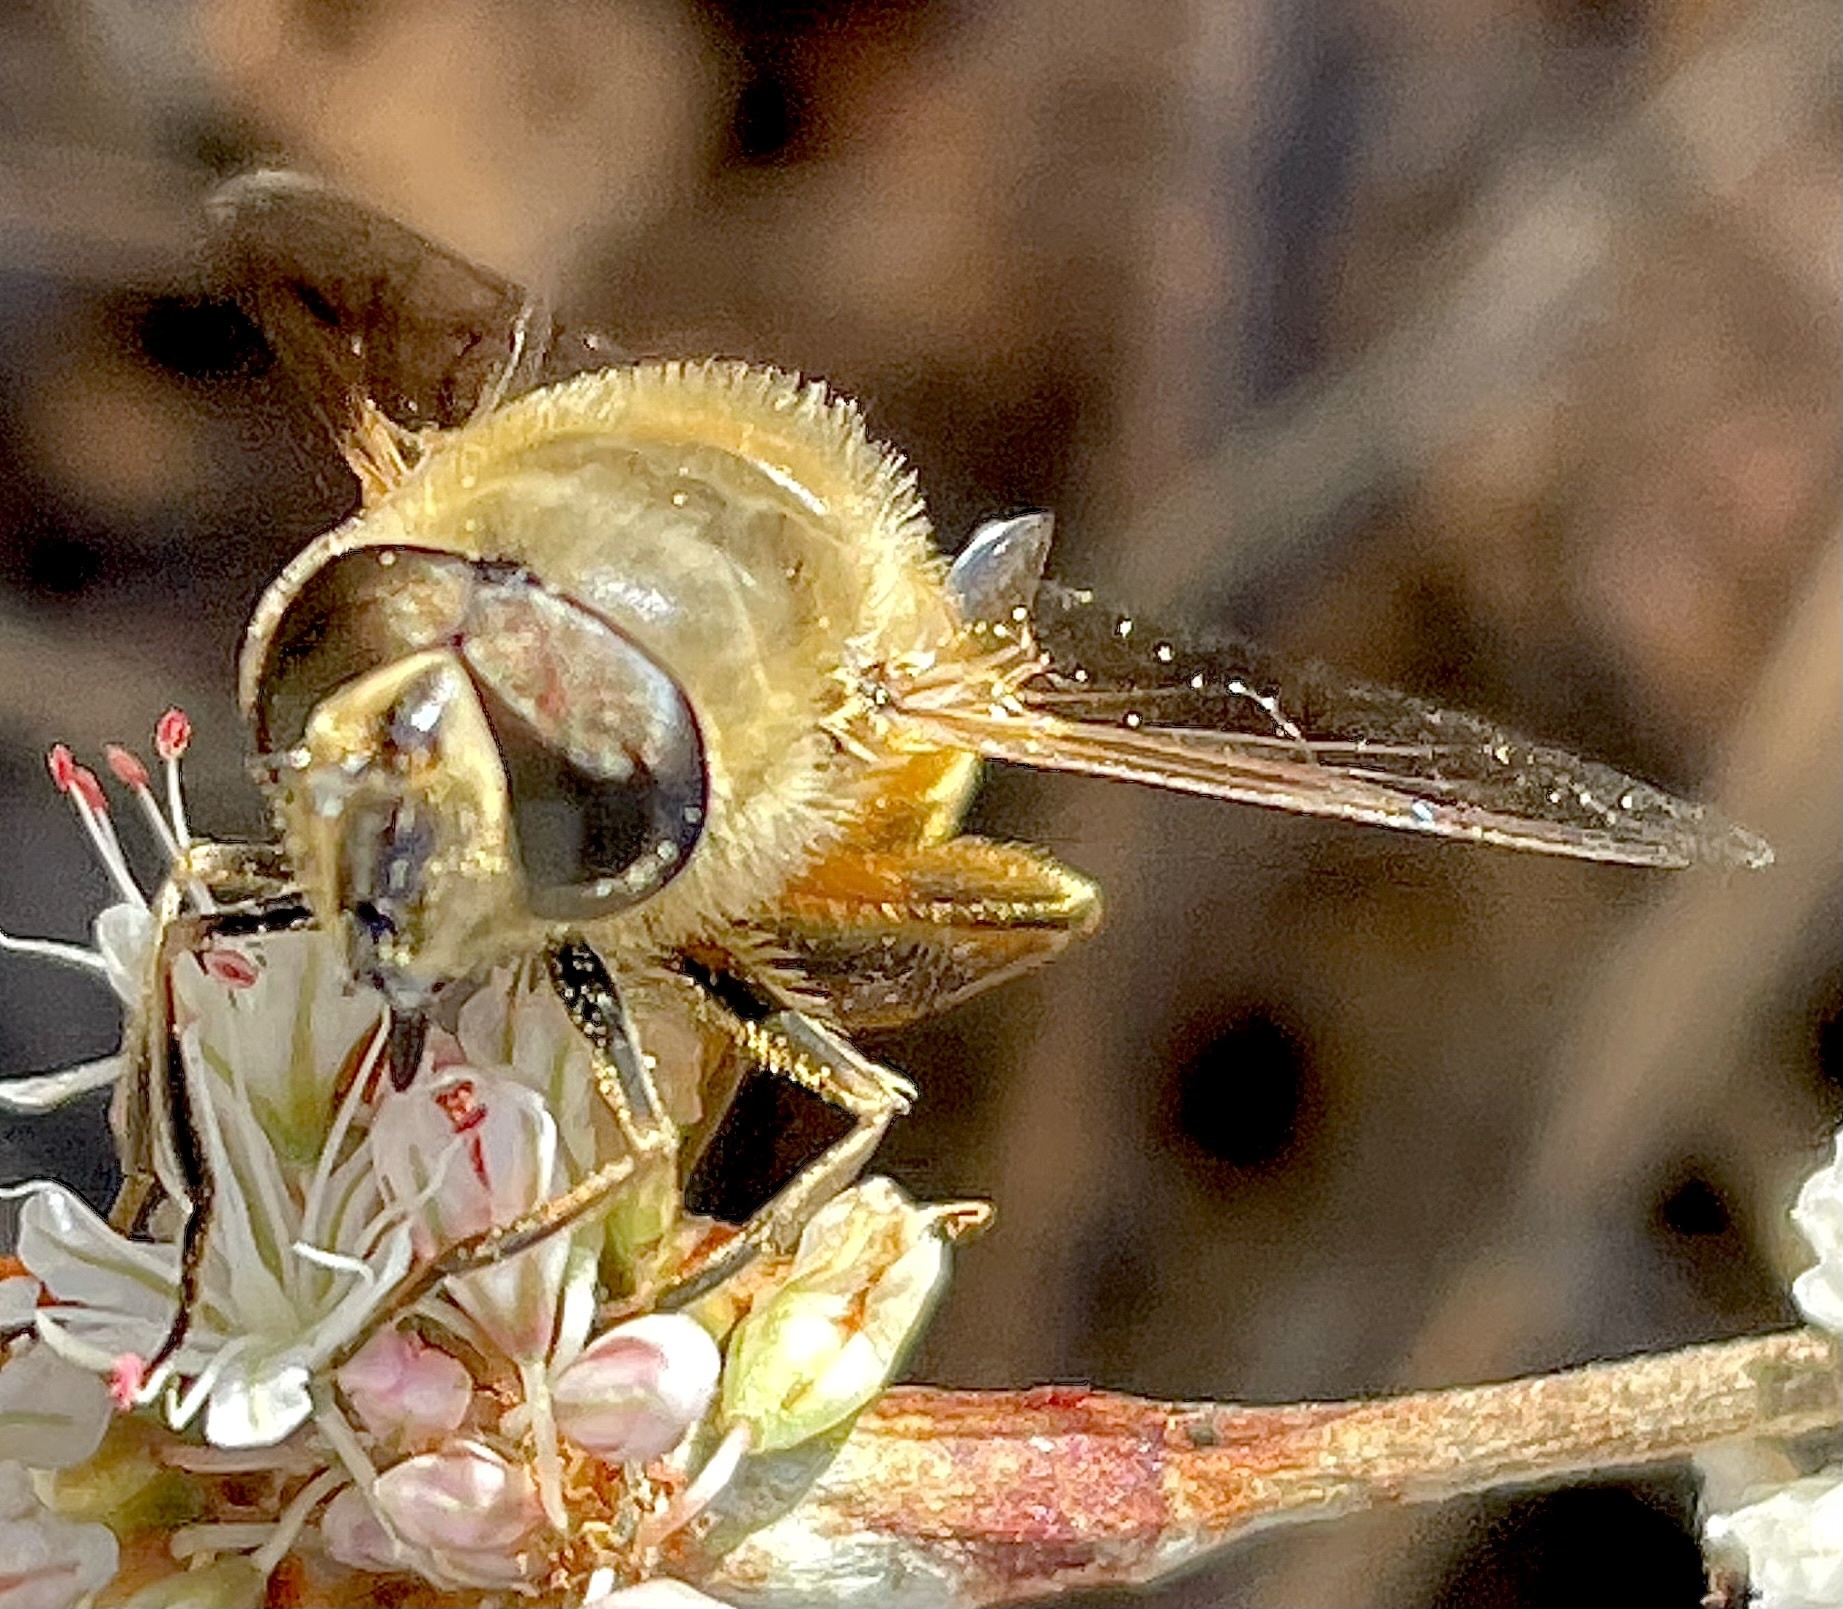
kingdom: Plantae
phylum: Tracheophyta
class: Magnoliopsida
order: Caryophyllales
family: Polygonaceae
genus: Eriogonum
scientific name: Eriogonum elongatum
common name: Long-stem wild buckwheat
